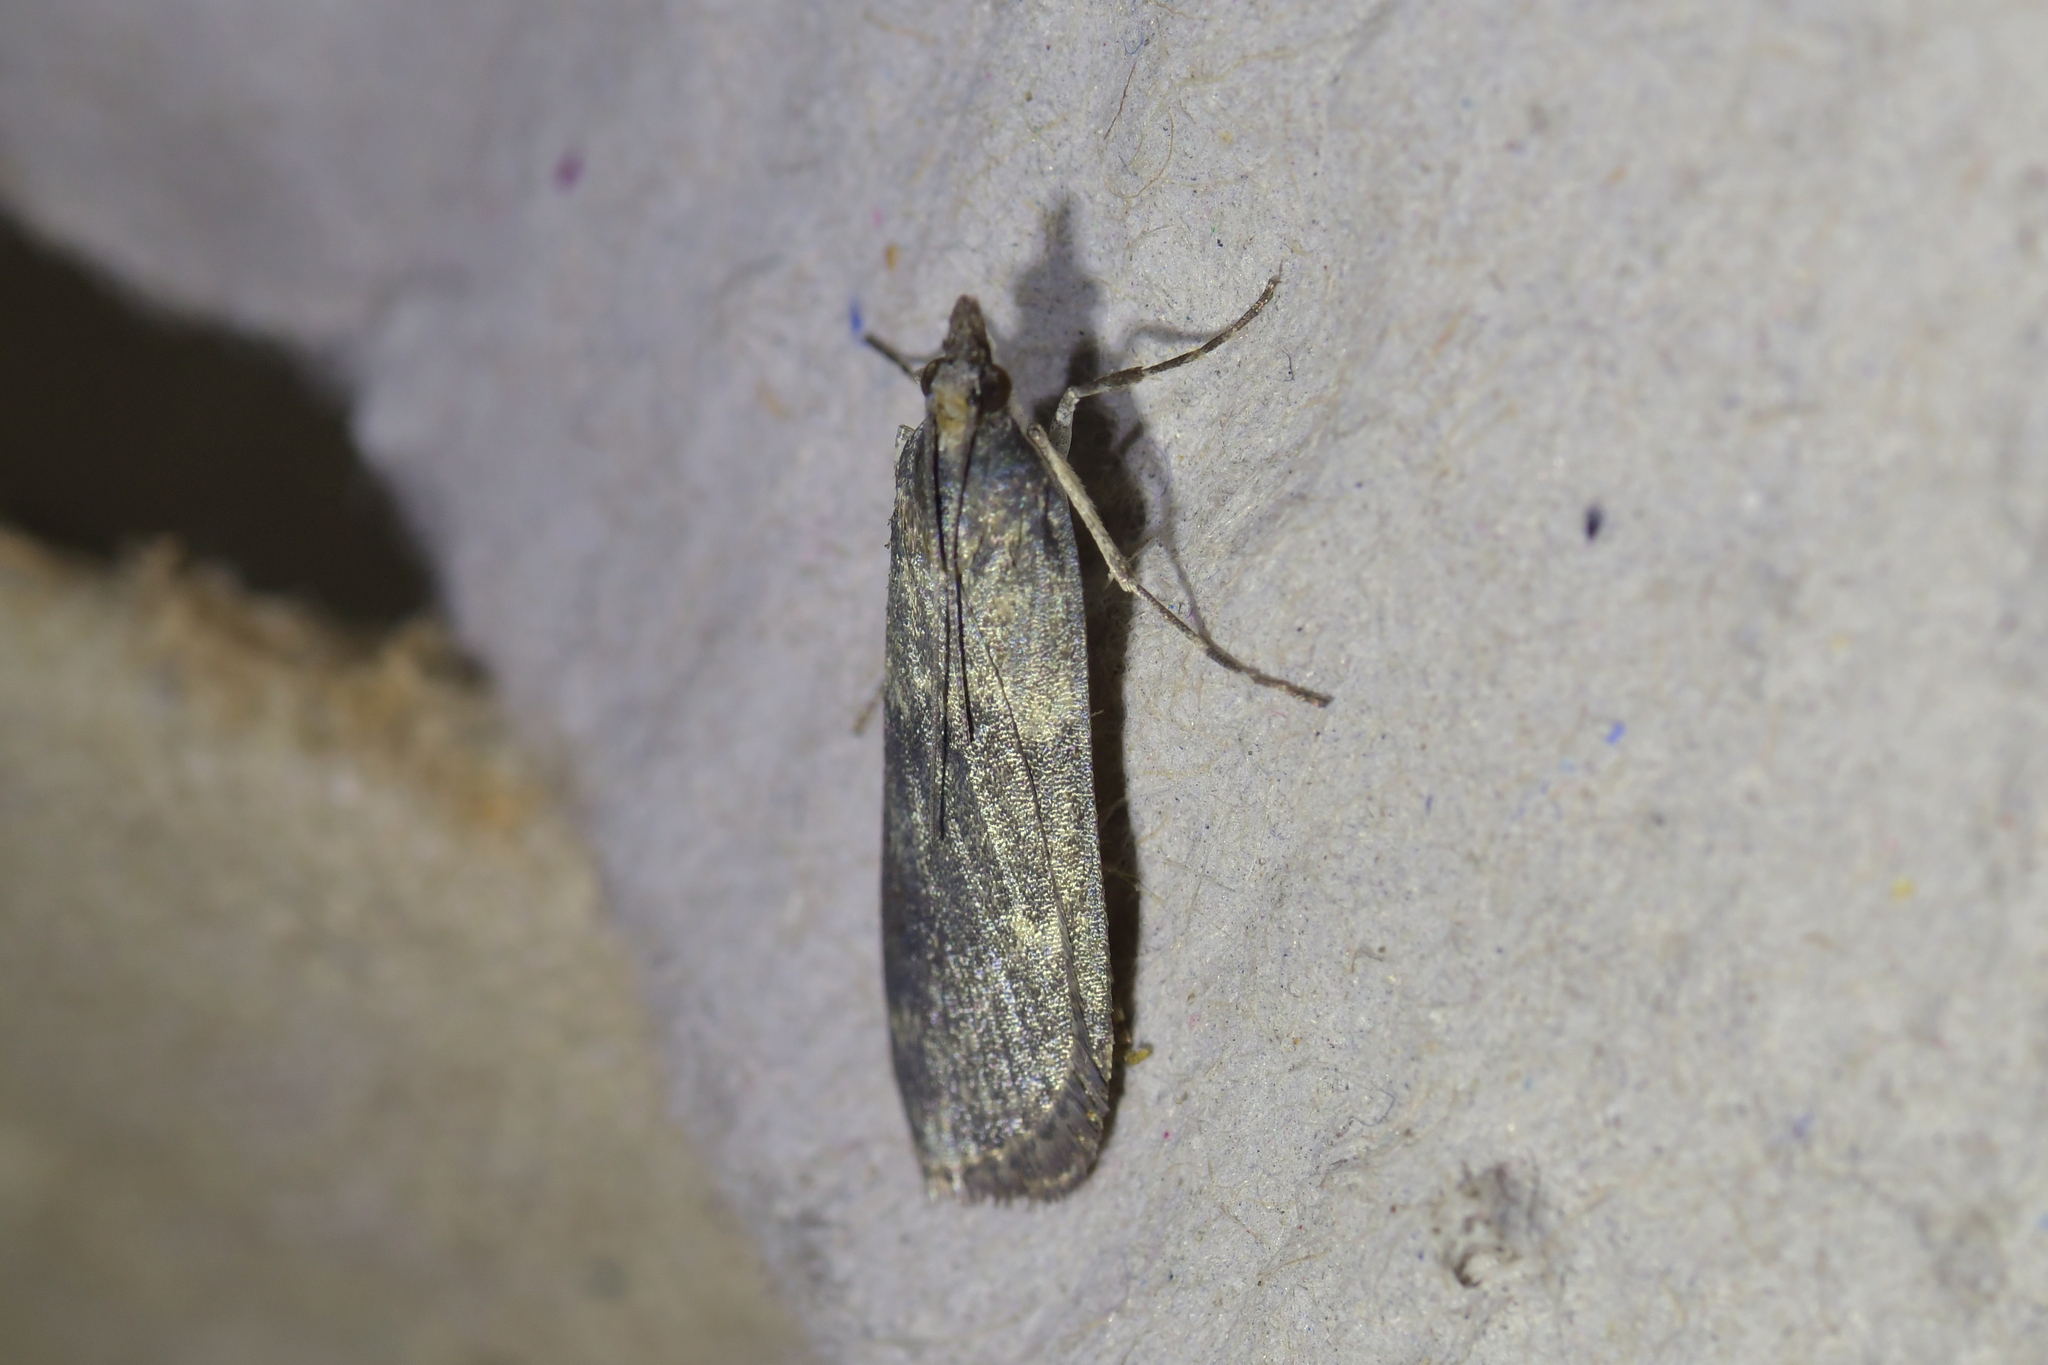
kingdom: Animalia
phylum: Arthropoda
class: Insecta
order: Lepidoptera
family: Crambidae
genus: Eudonia
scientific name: Eudonia cataxesta
